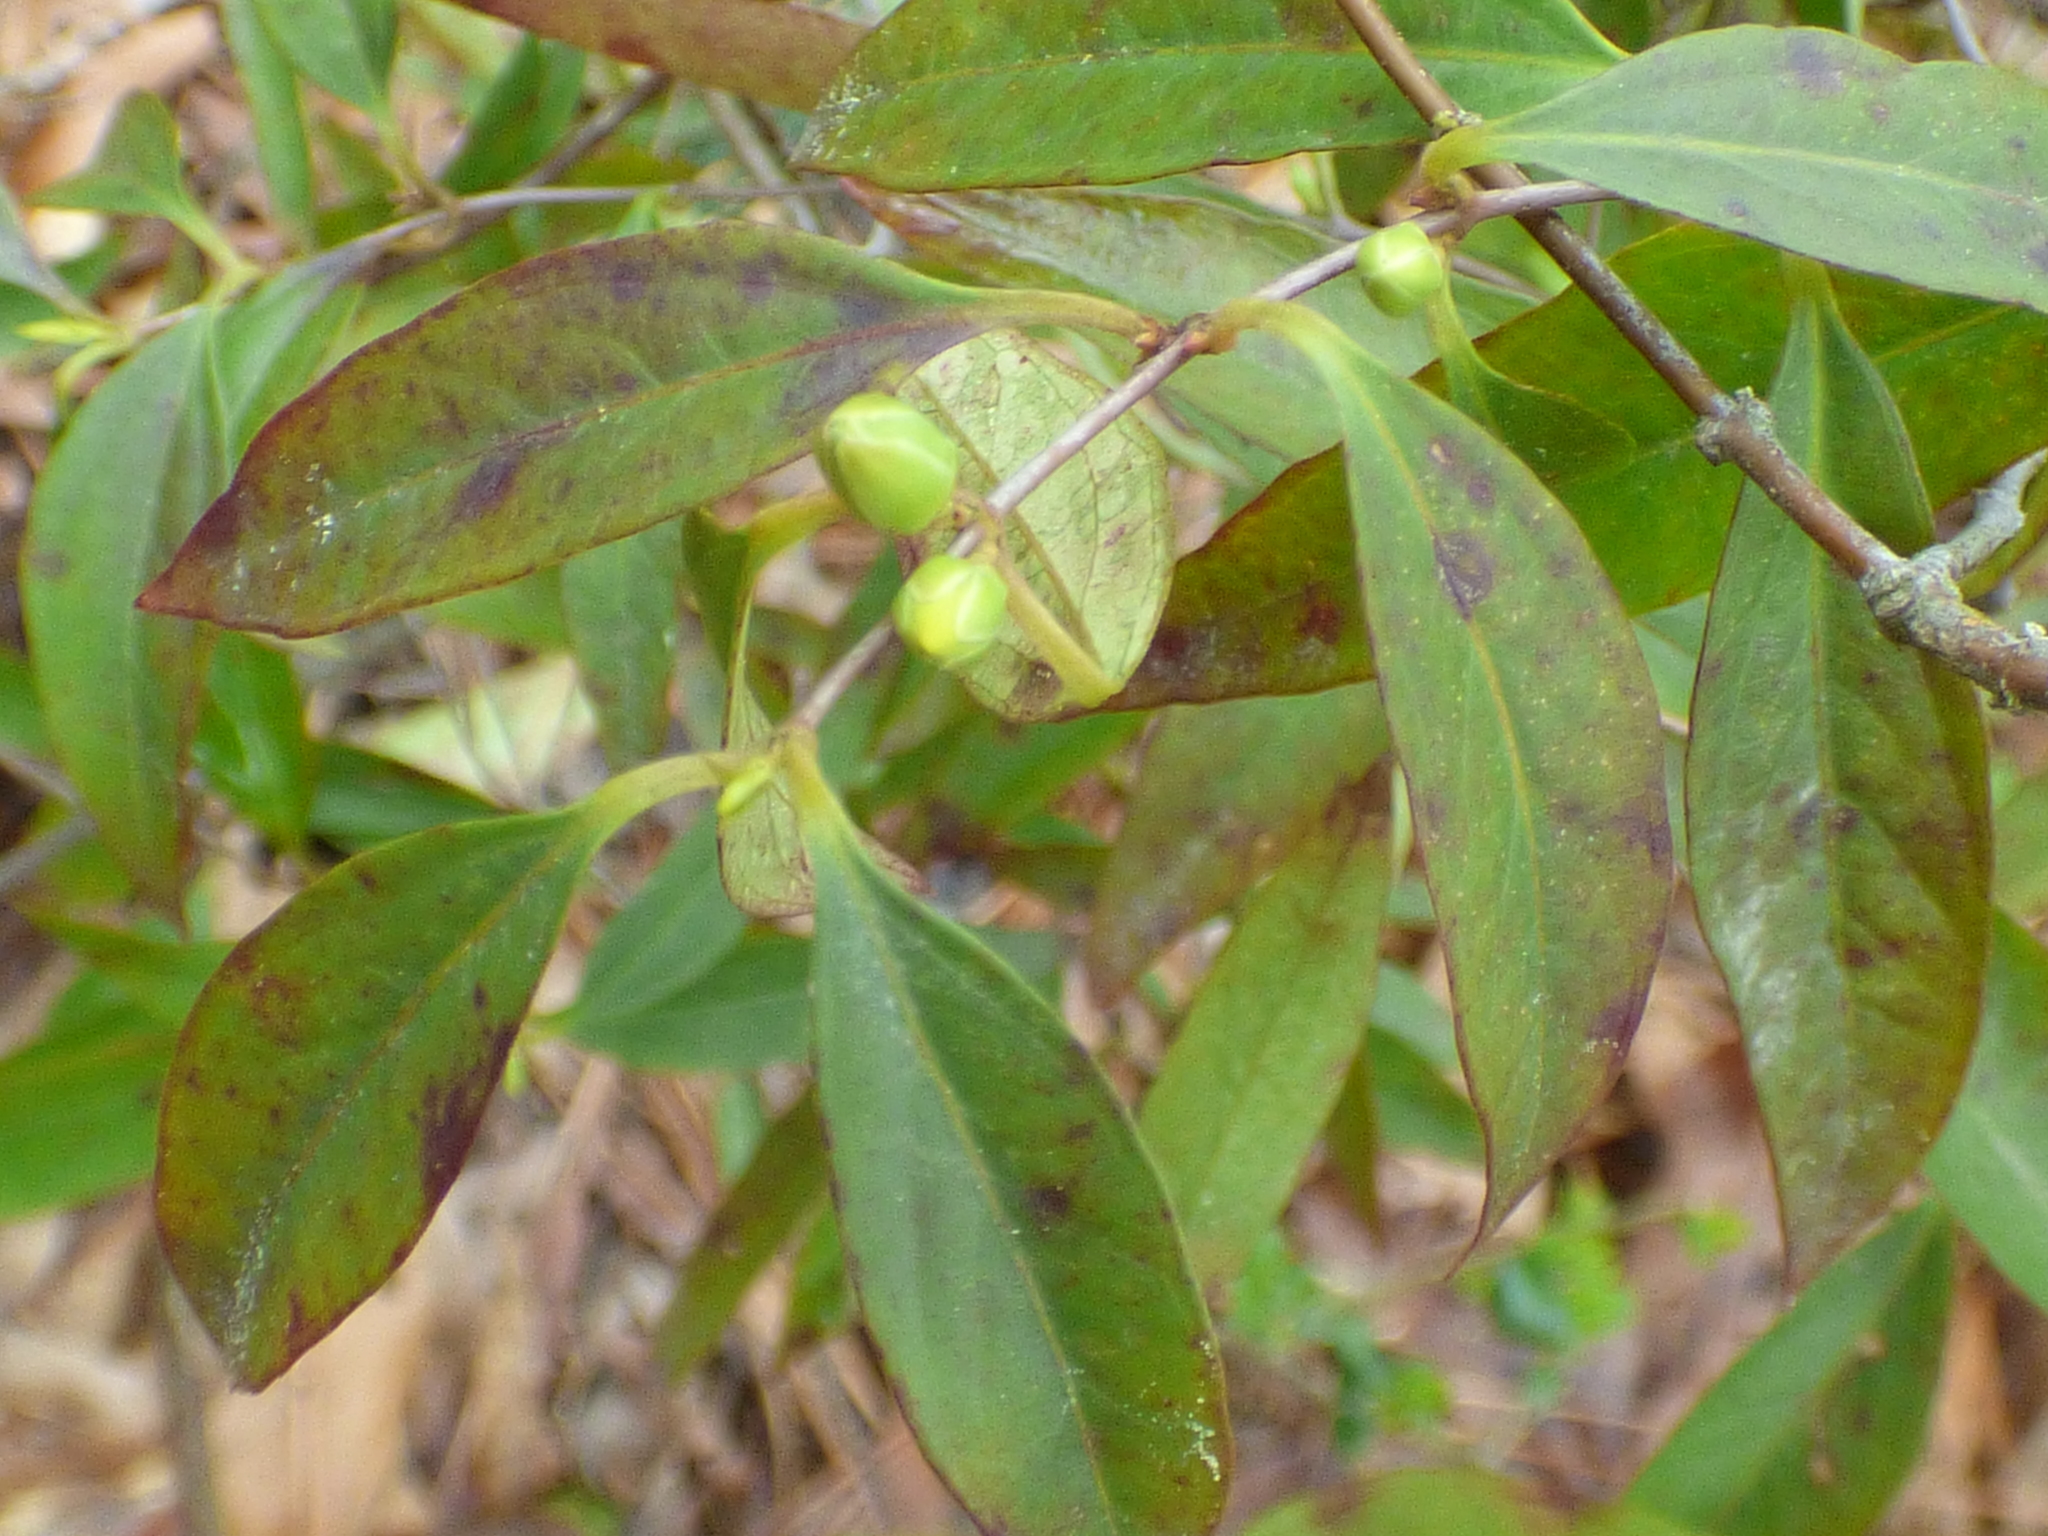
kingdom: Plantae
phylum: Tracheophyta
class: Magnoliopsida
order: Gentianales
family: Gelsemiaceae
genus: Gelsemium
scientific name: Gelsemium sempervirens
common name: Carolina-jasmine
